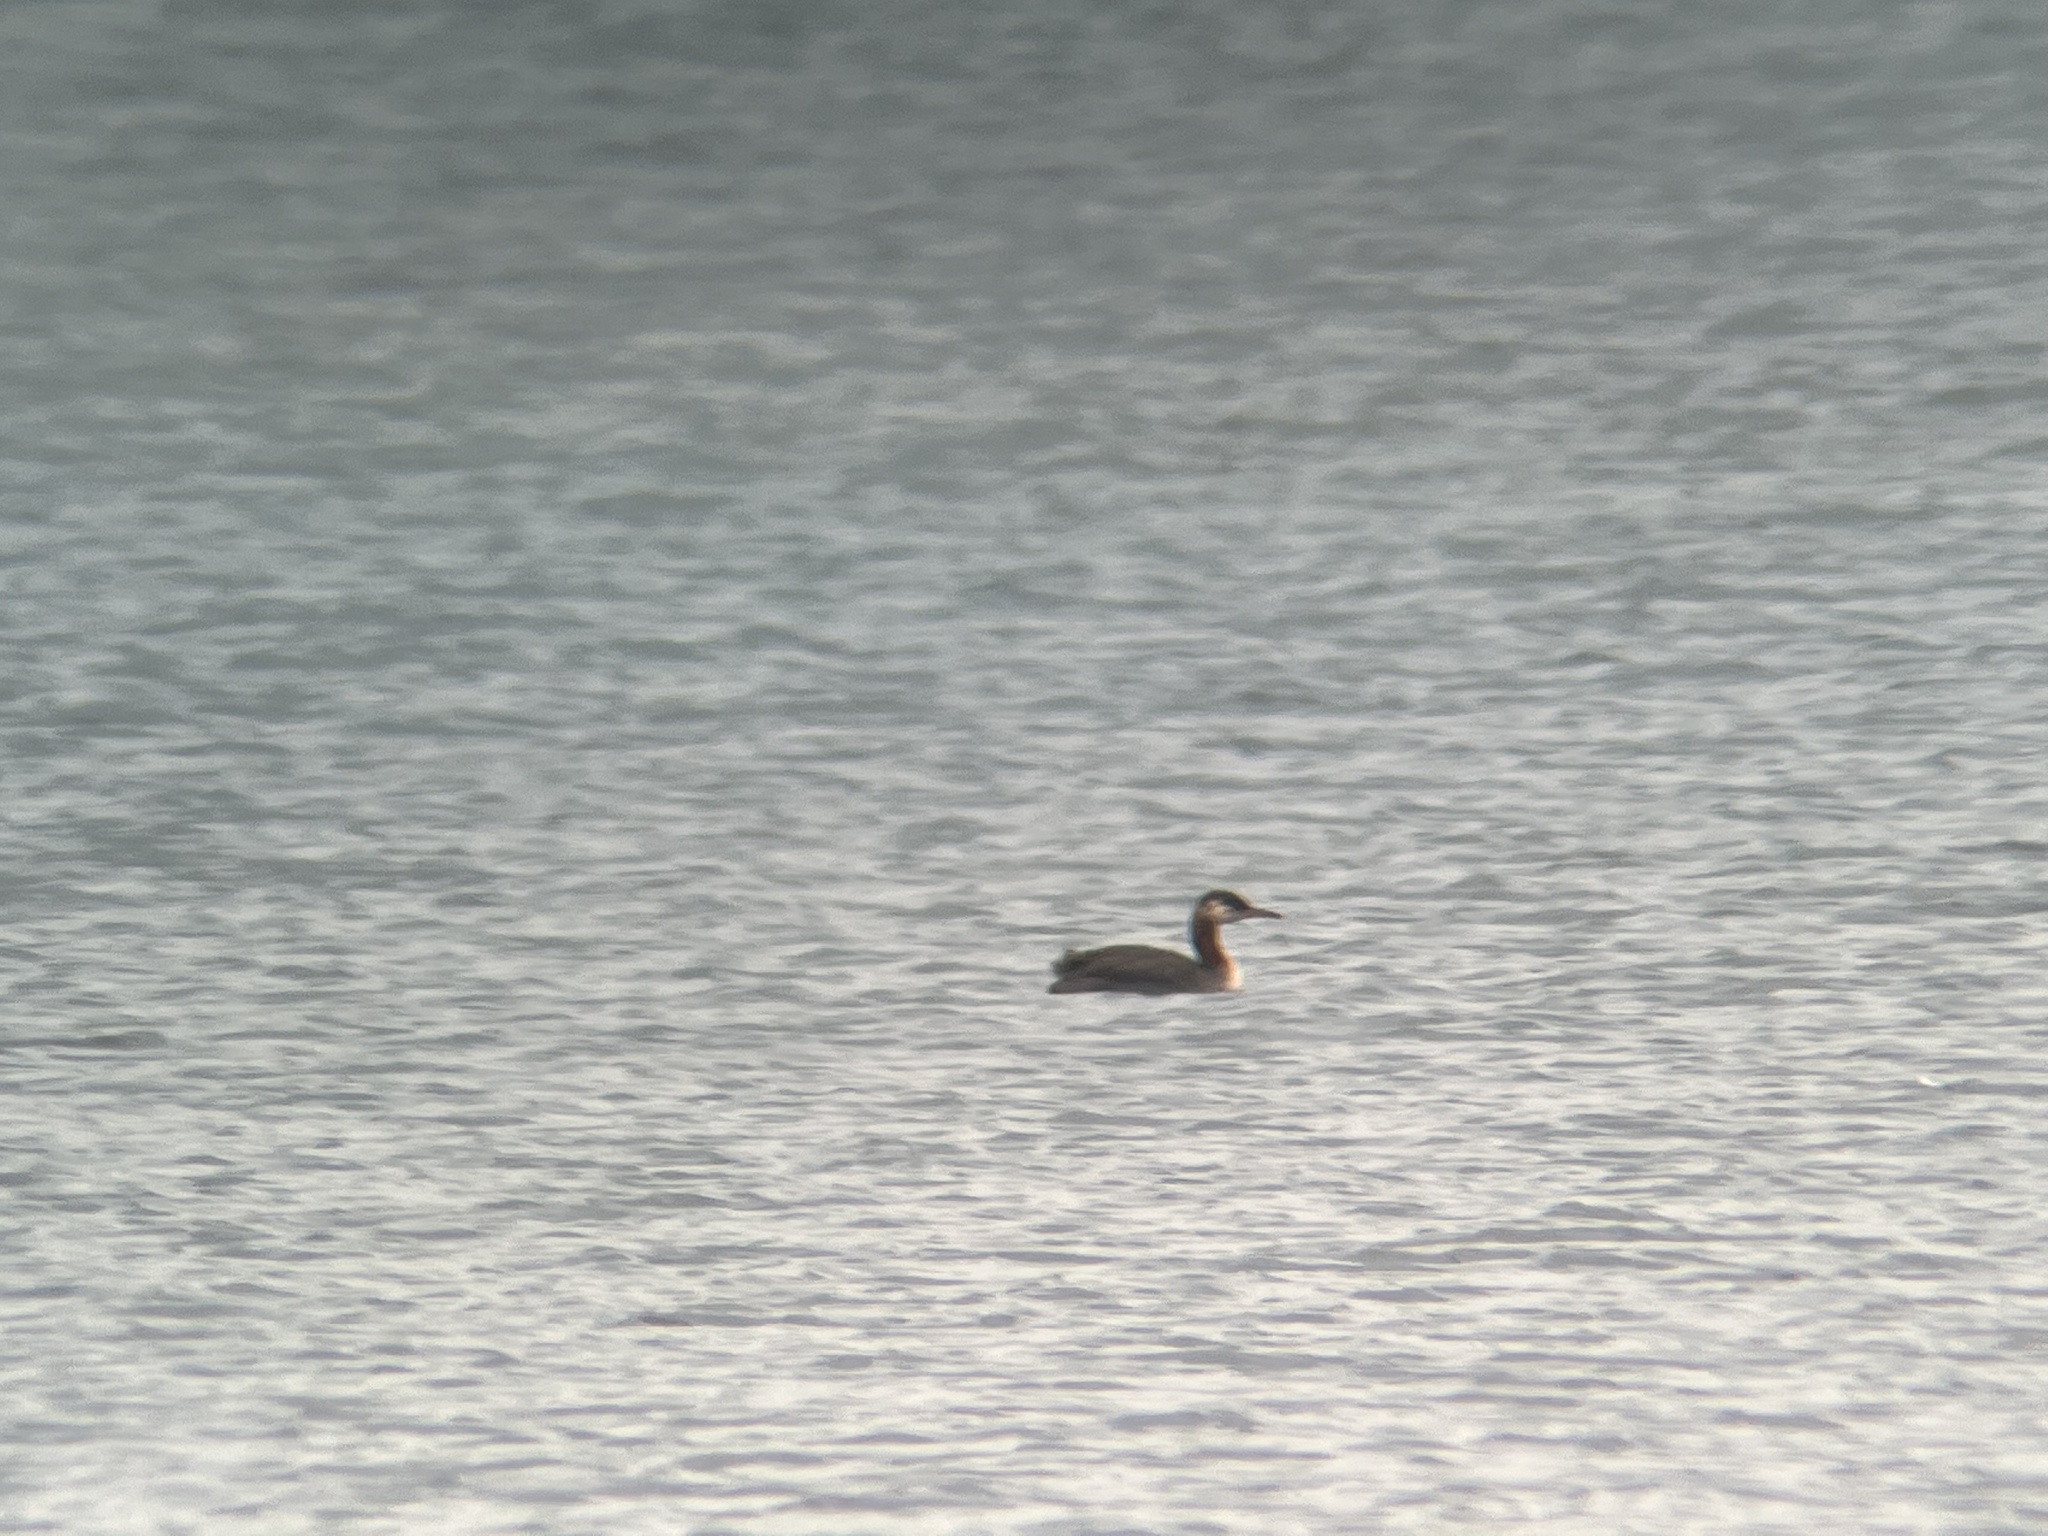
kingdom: Animalia
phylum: Chordata
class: Aves
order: Podicipediformes
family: Podicipedidae
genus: Podiceps
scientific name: Podiceps grisegena
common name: Red-necked grebe
